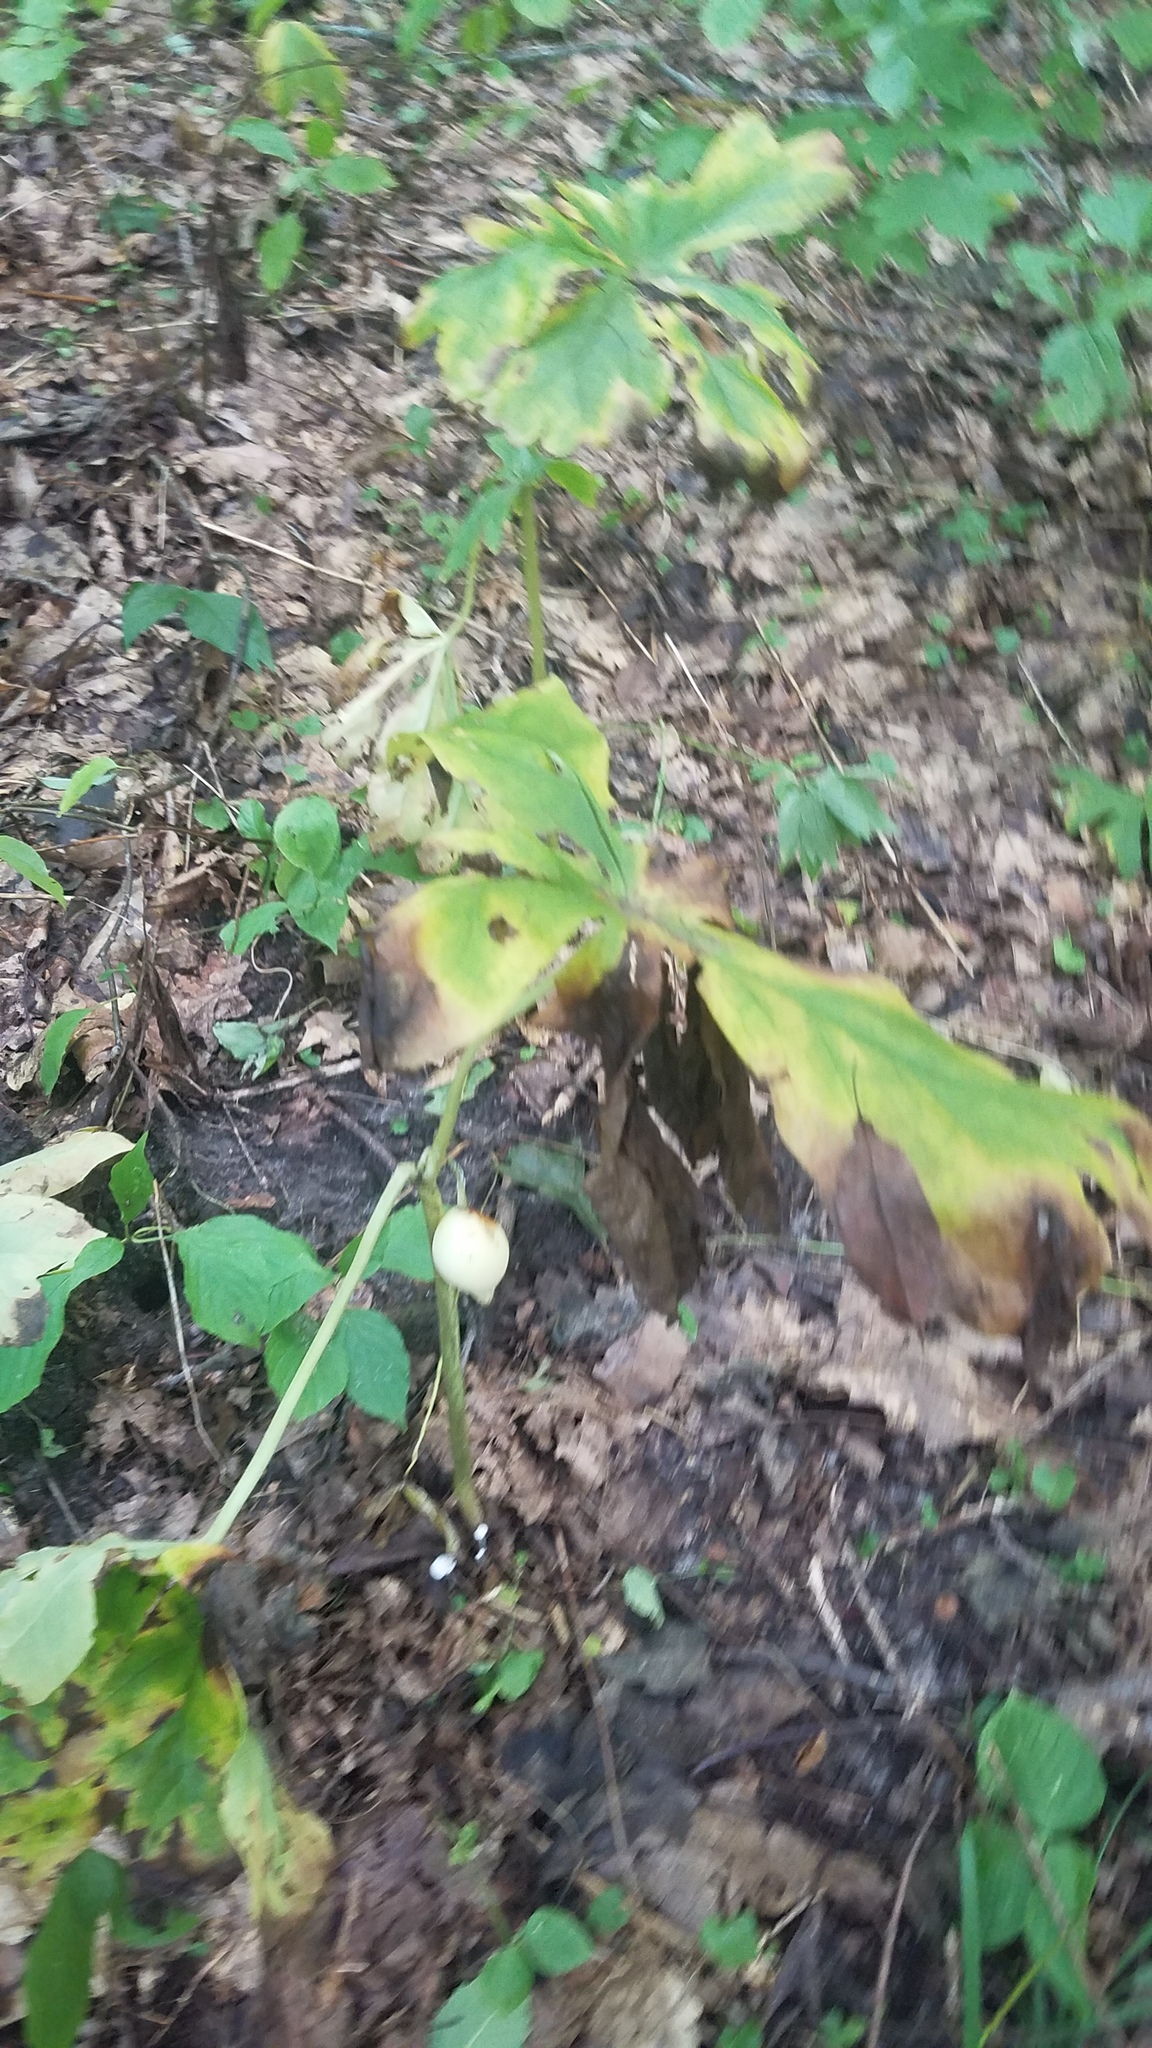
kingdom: Plantae
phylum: Tracheophyta
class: Magnoliopsida
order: Ranunculales
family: Berberidaceae
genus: Podophyllum
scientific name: Podophyllum peltatum
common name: Wild mandrake
